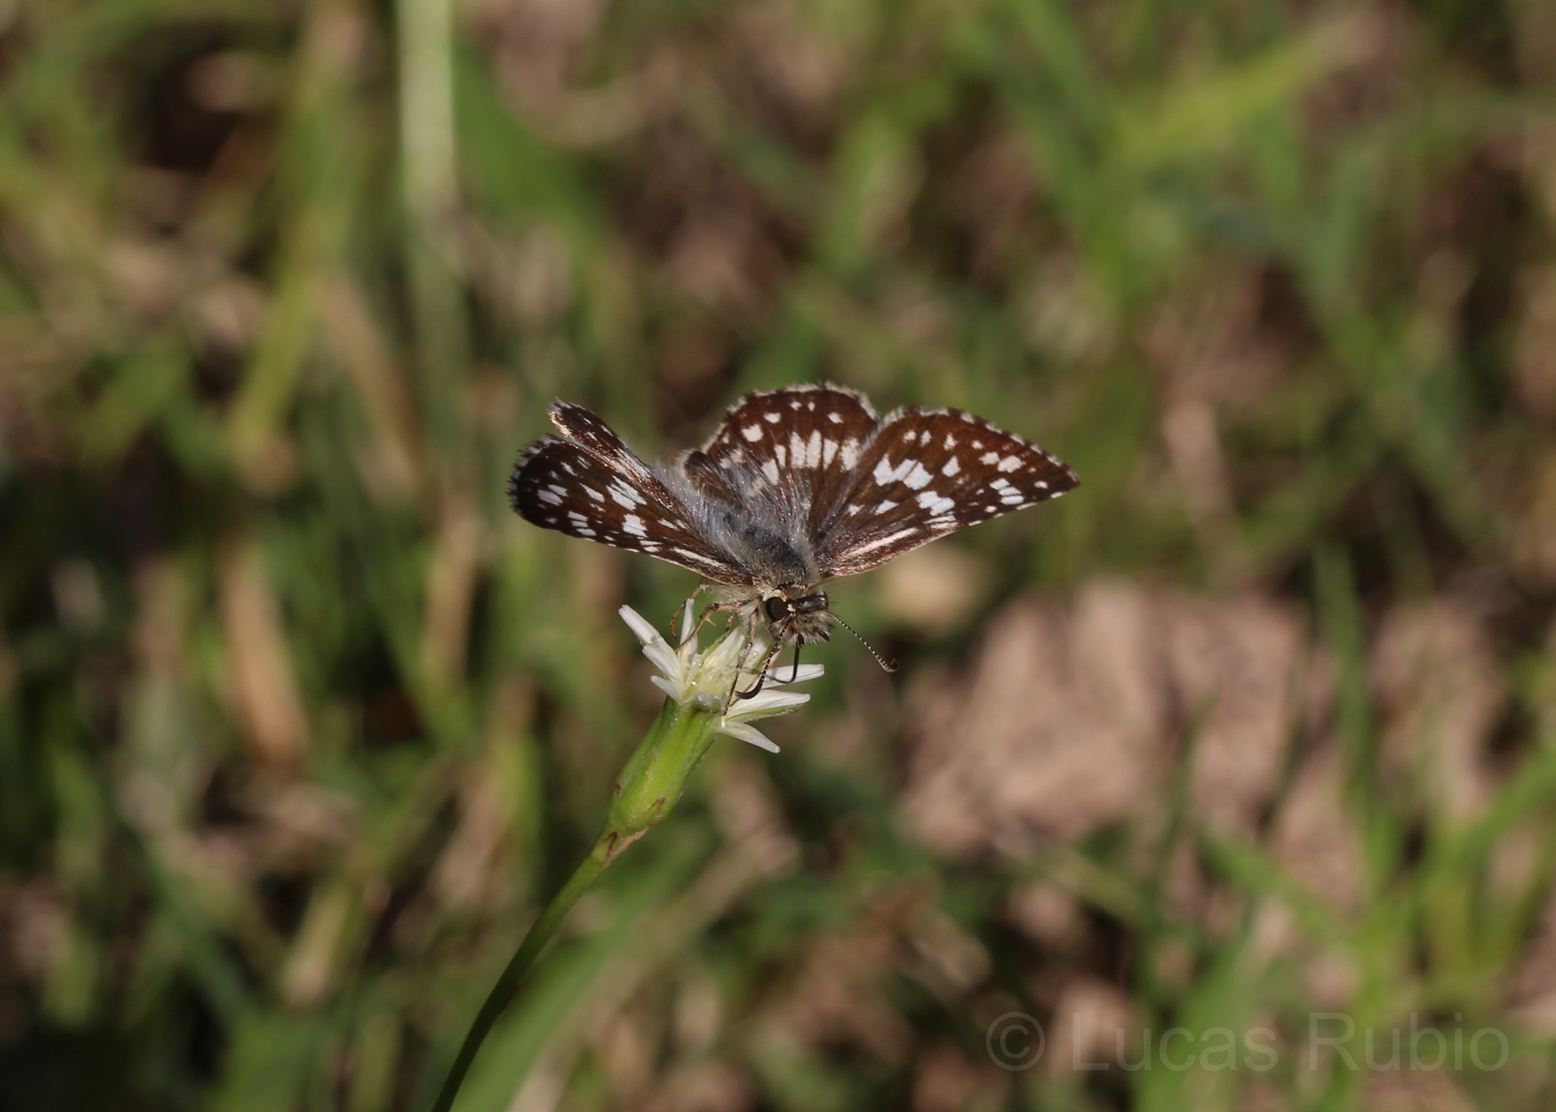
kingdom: Animalia
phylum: Arthropoda
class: Insecta
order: Lepidoptera
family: Hesperiidae
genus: Burnsius
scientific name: Burnsius orcynoides
